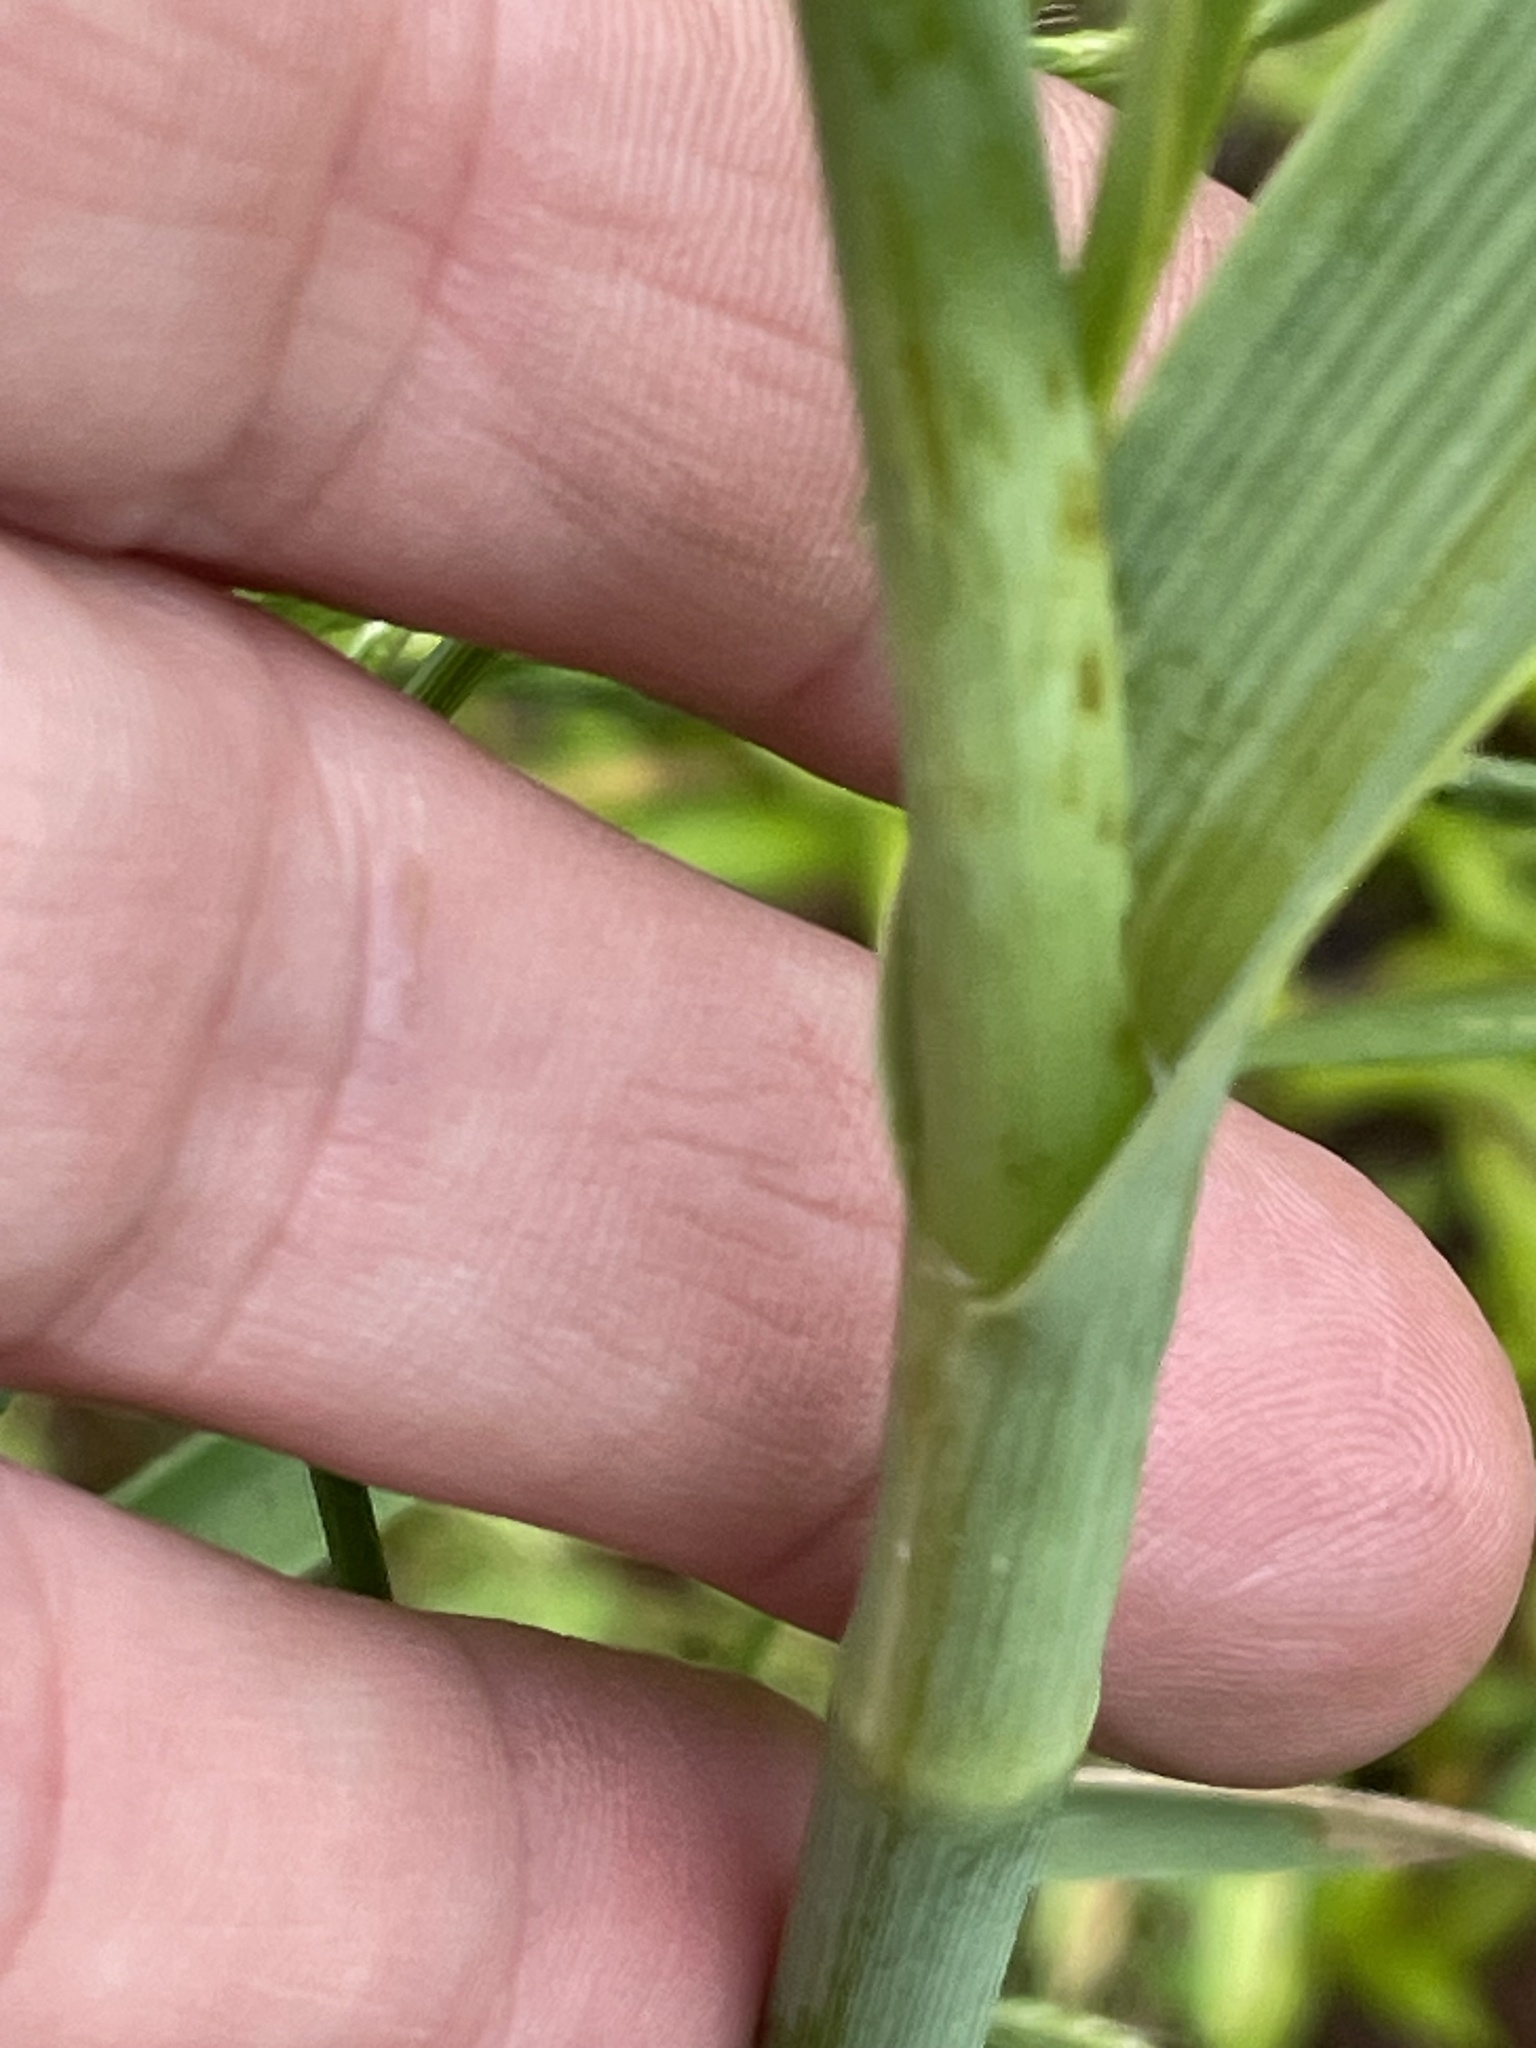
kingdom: Plantae
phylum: Tracheophyta
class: Liliopsida
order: Commelinales
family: Commelinaceae
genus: Tradescantia
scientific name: Tradescantia ohiensis
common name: Ohio spiderwort
